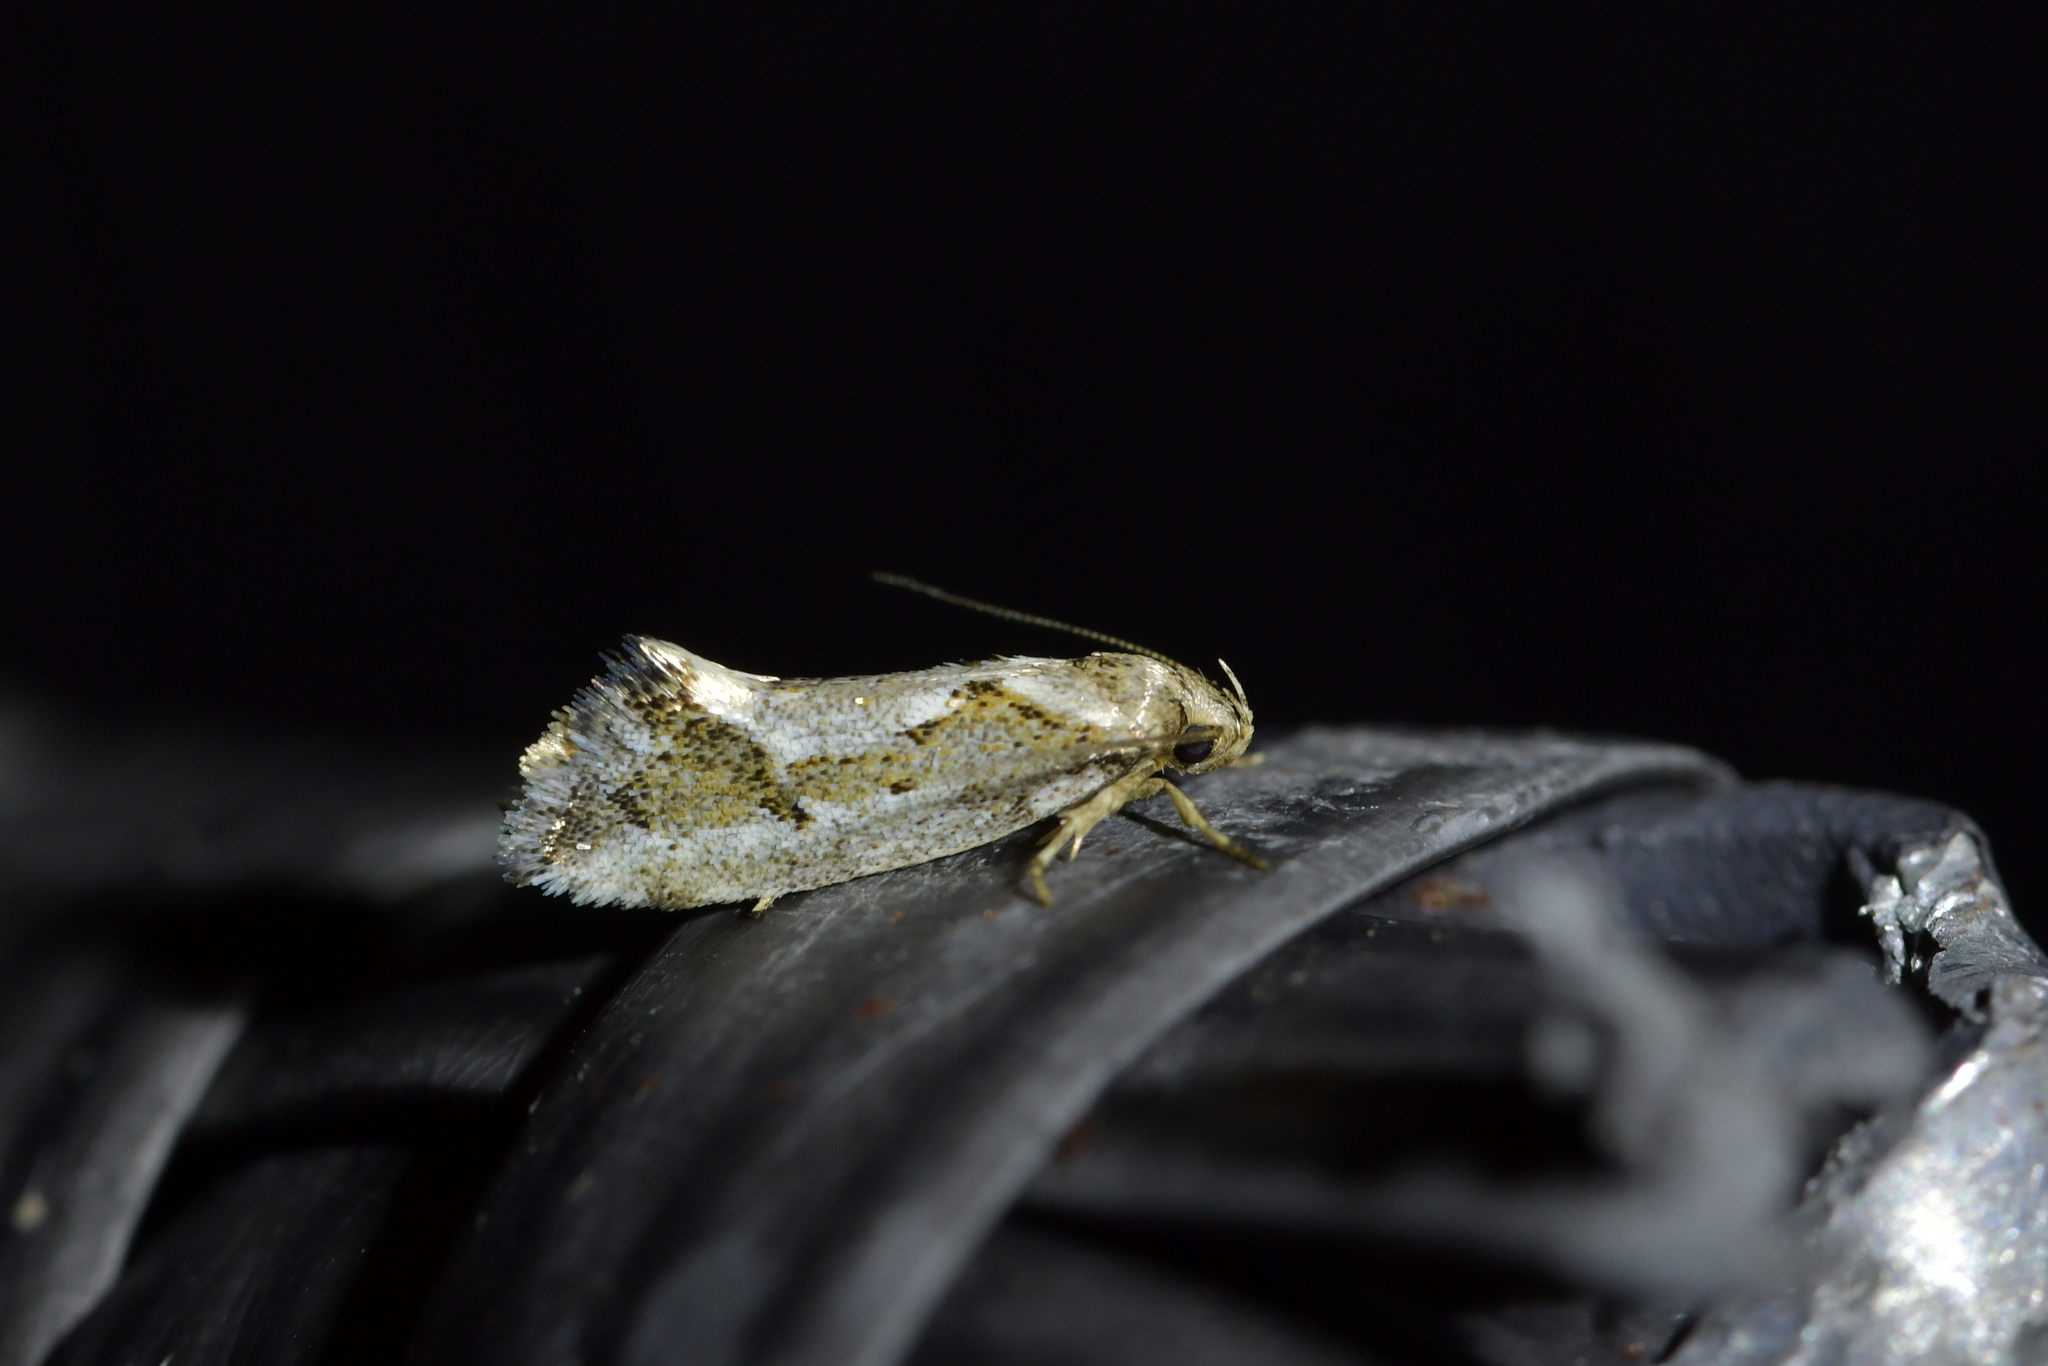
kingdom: Animalia
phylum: Arthropoda
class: Insecta
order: Lepidoptera
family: Oecophoridae
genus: Tingena
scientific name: Tingena hemimochla
